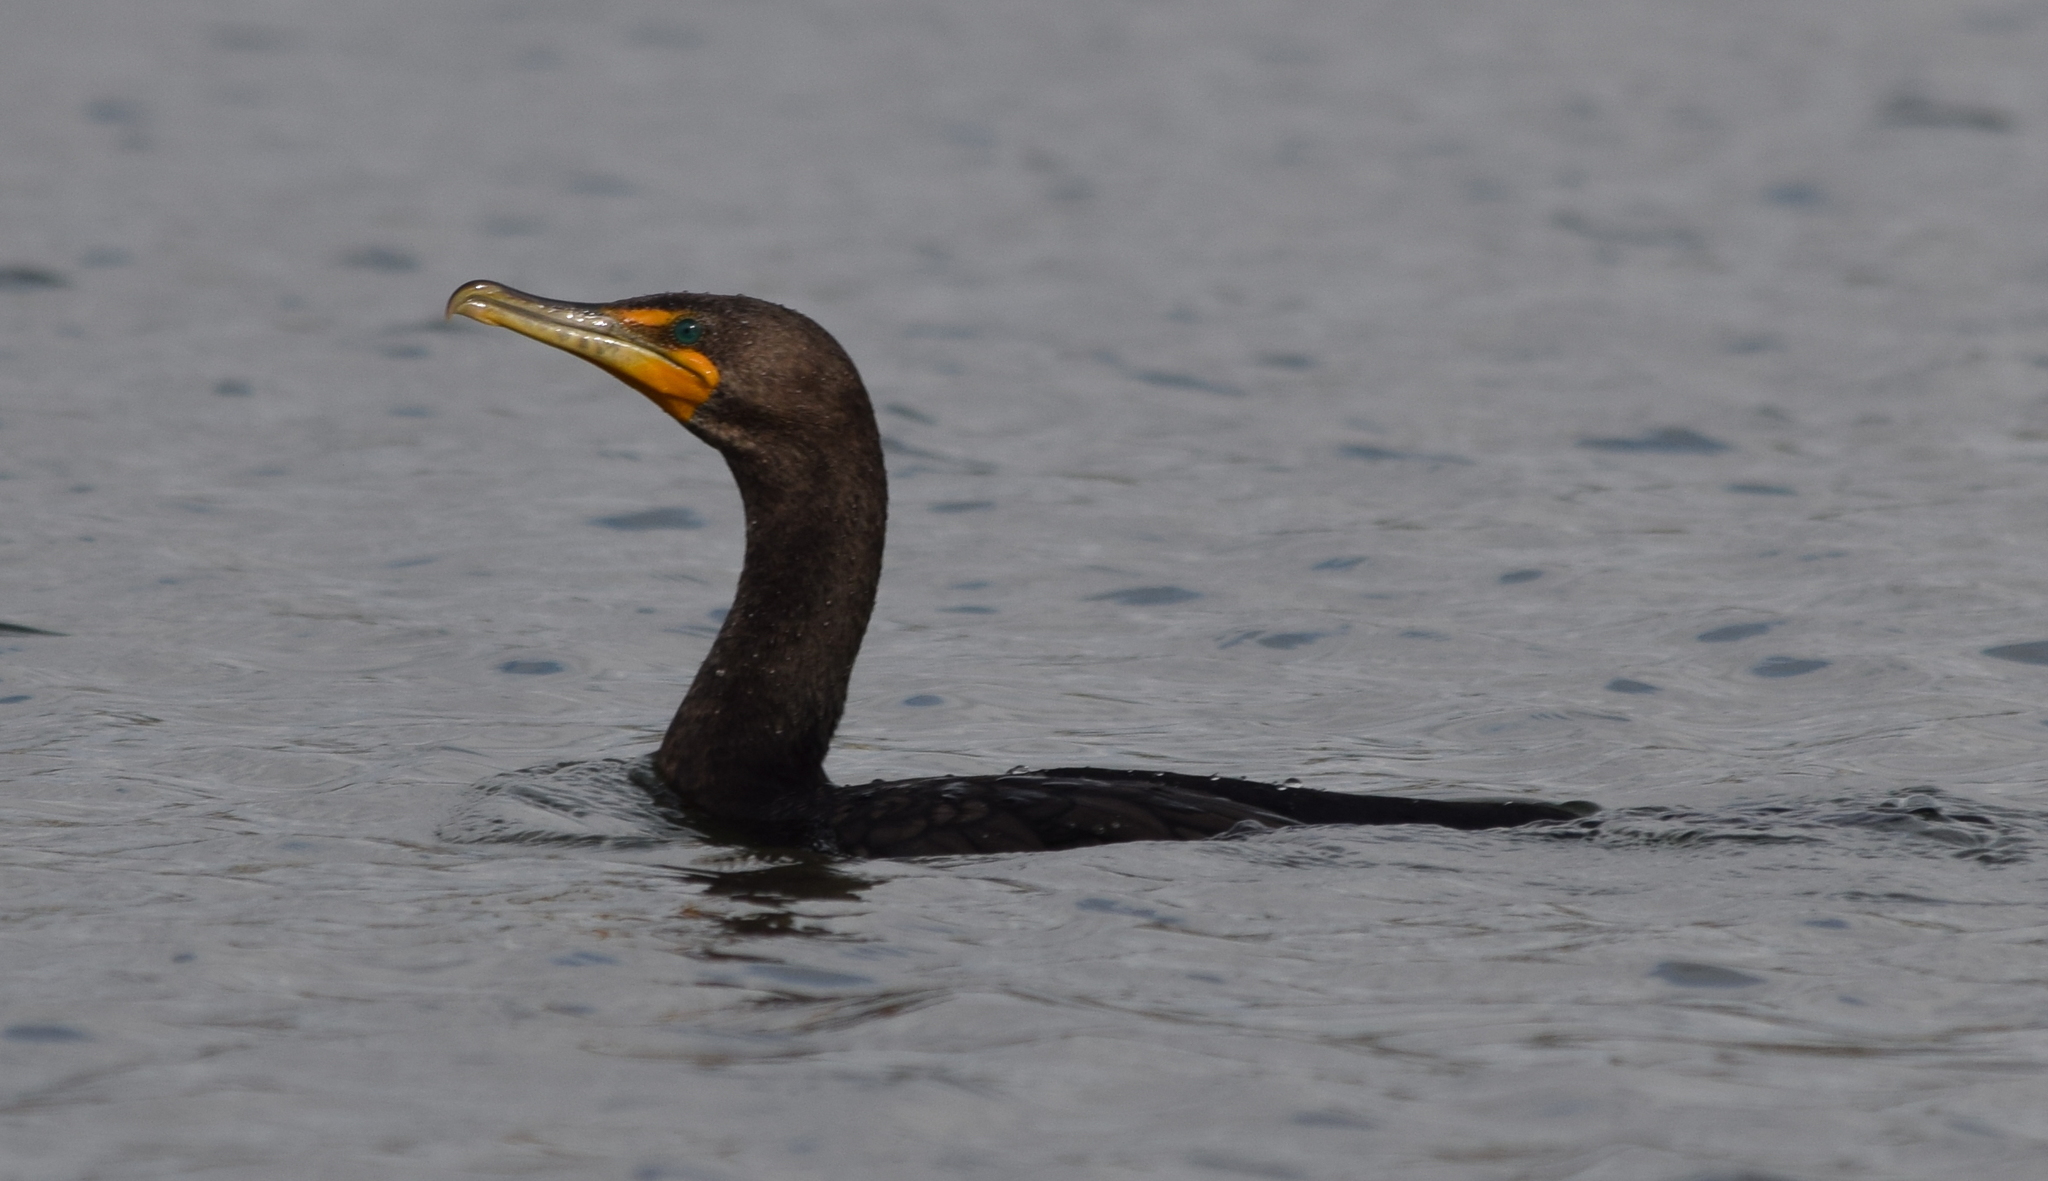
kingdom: Animalia
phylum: Chordata
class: Aves
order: Suliformes
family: Phalacrocoracidae
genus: Phalacrocorax
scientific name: Phalacrocorax auritus
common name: Double-crested cormorant
